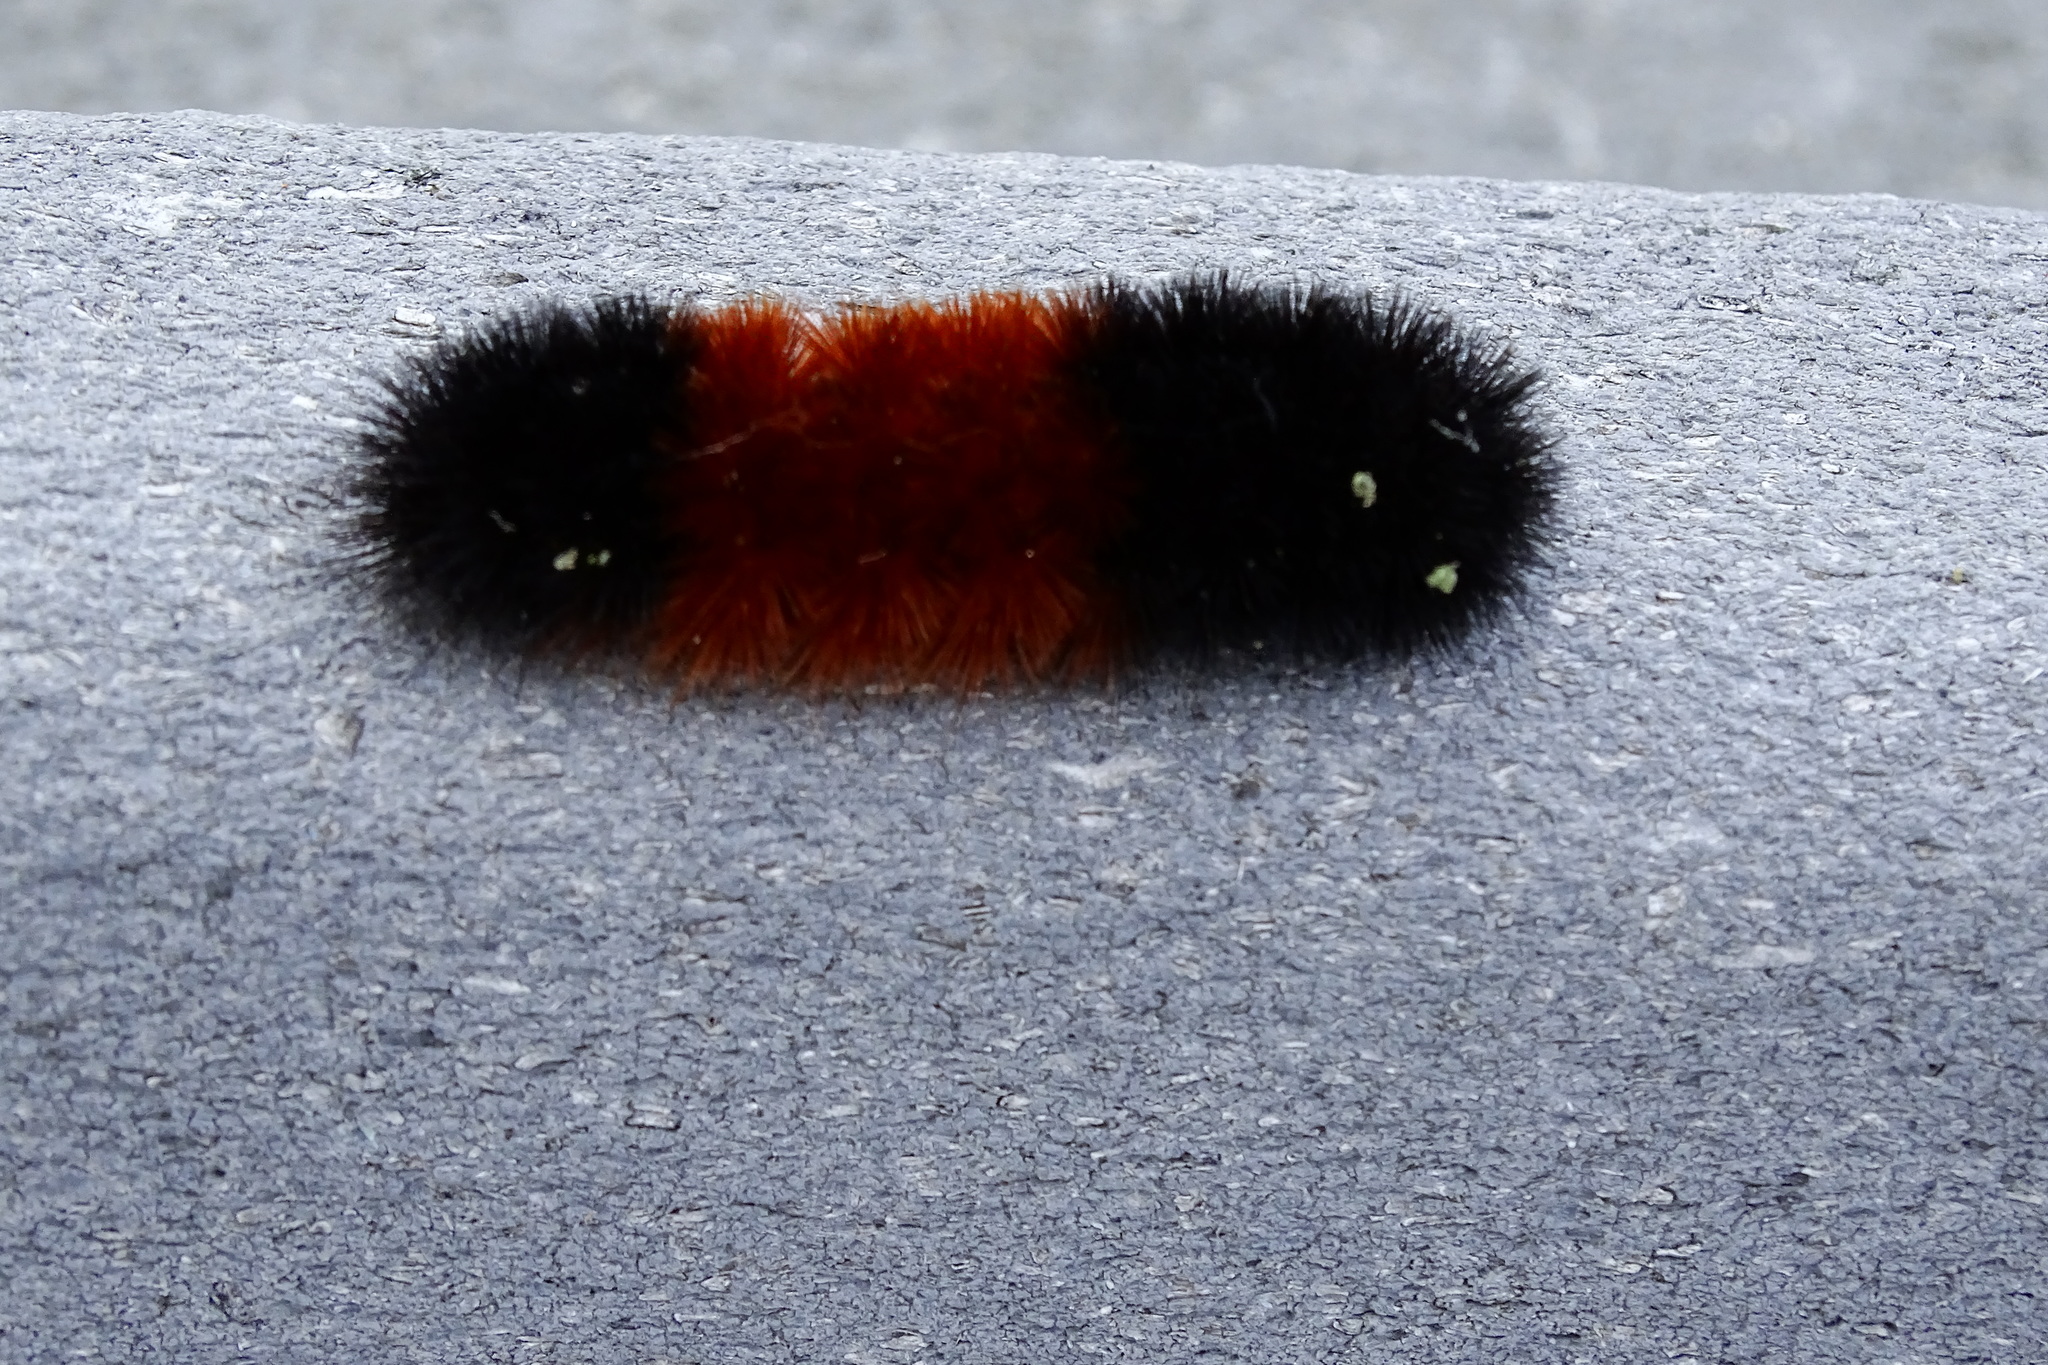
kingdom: Animalia
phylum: Arthropoda
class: Insecta
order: Lepidoptera
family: Erebidae
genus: Pyrrharctia
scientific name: Pyrrharctia isabella
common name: Isabella tiger moth
